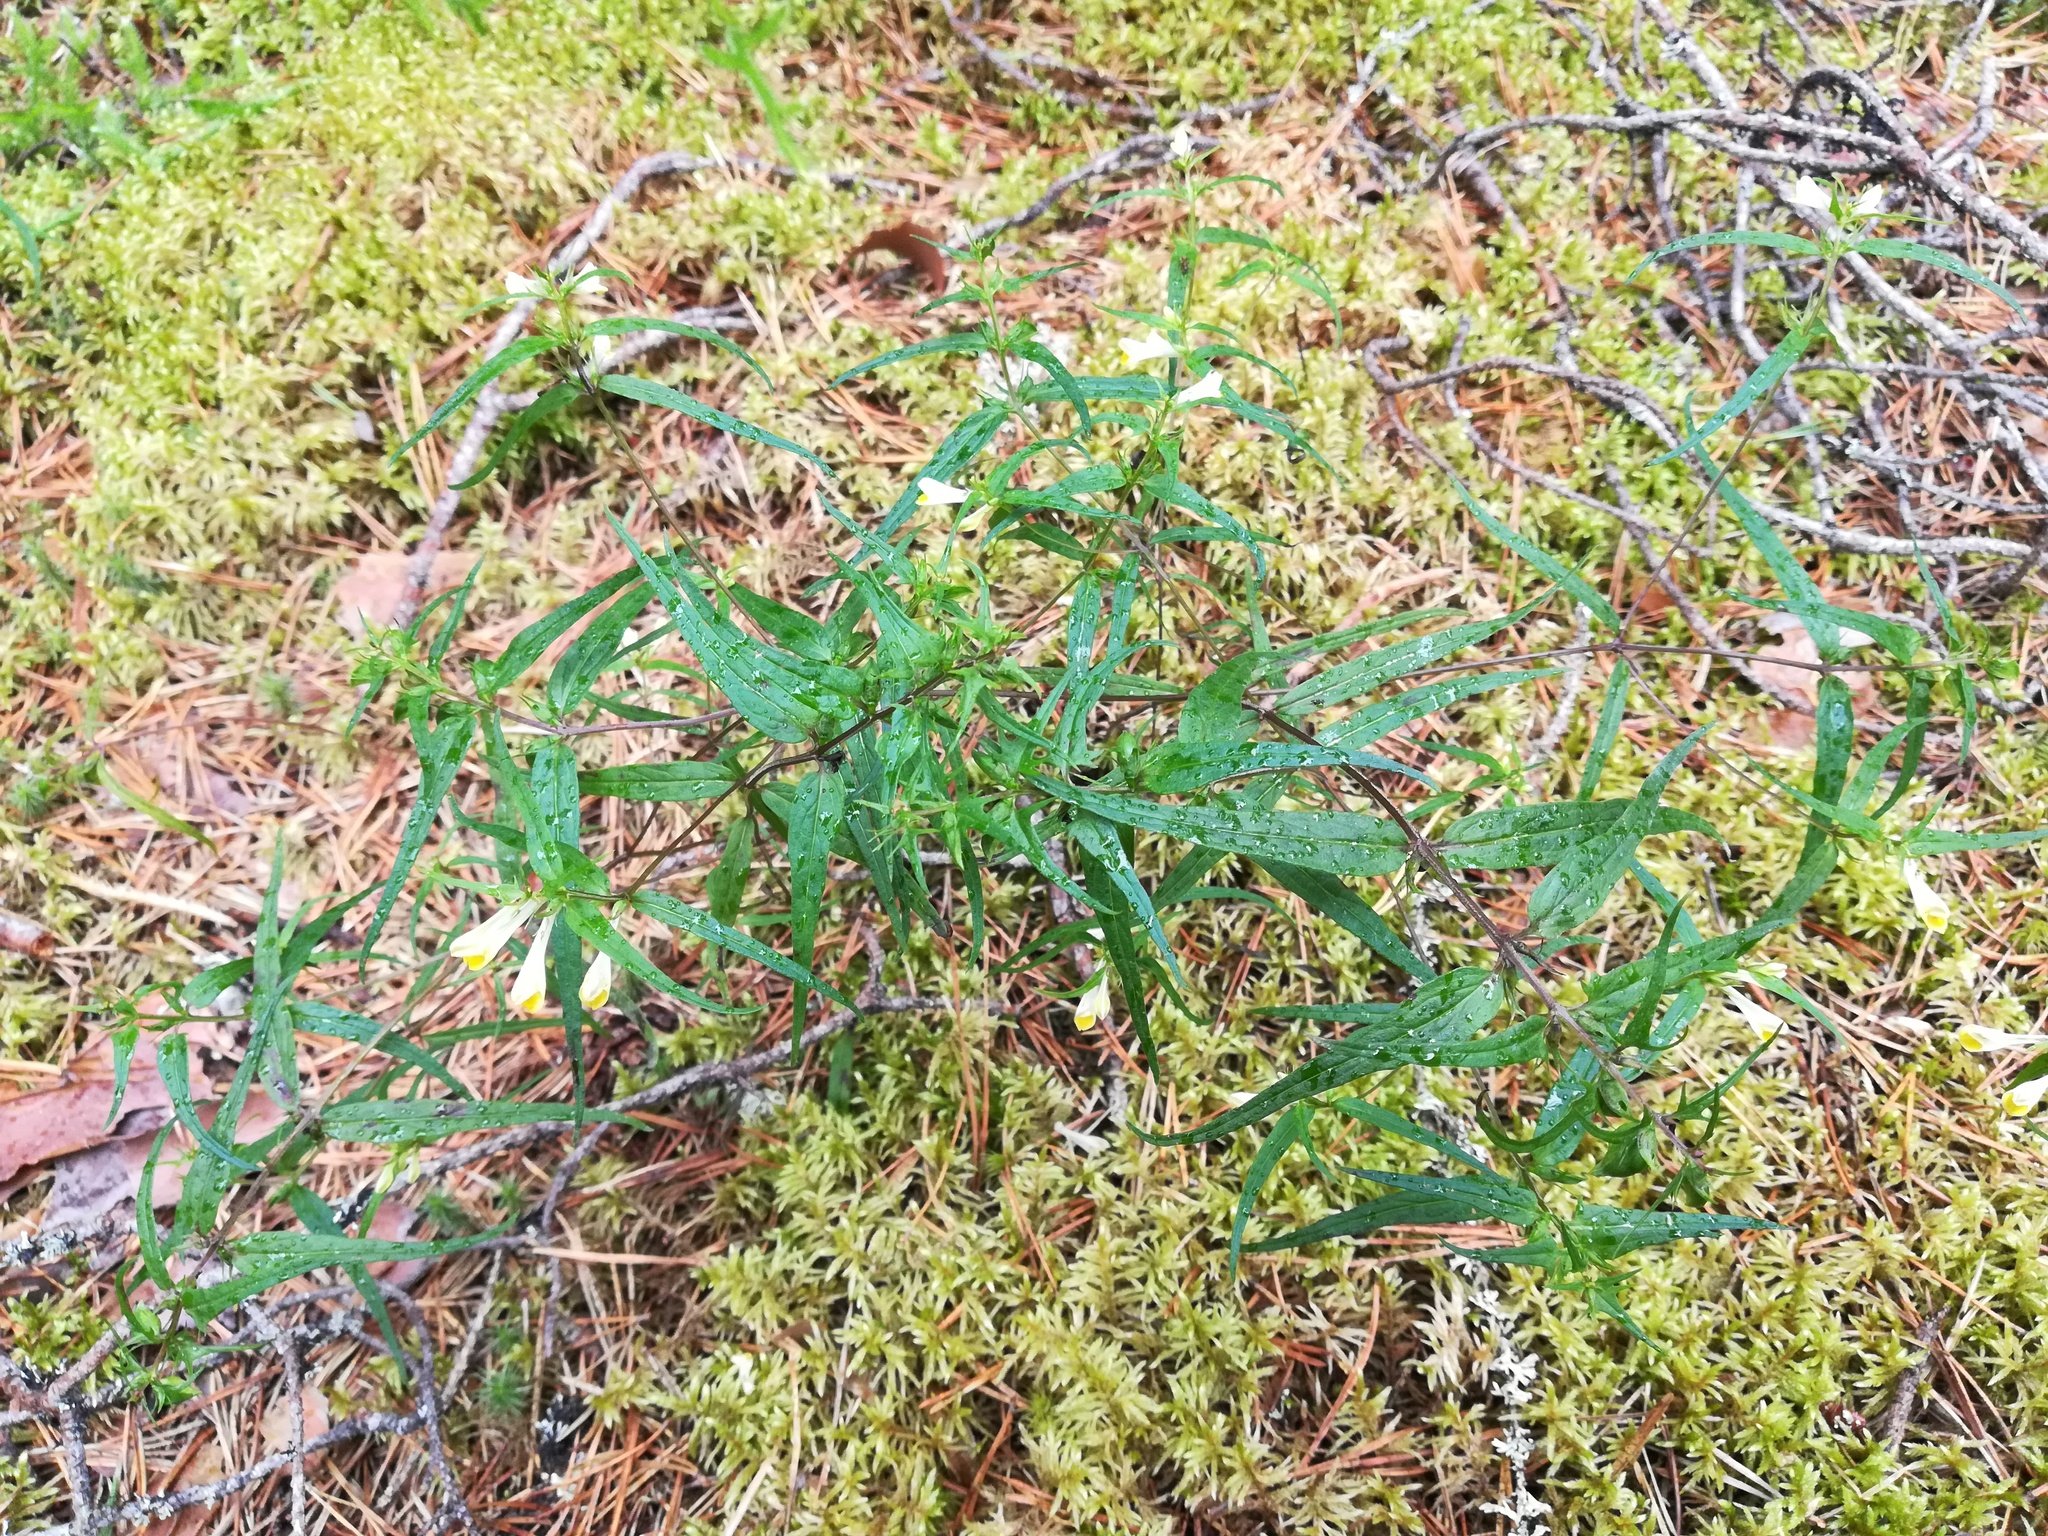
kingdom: Plantae
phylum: Tracheophyta
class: Magnoliopsida
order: Lamiales
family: Orobanchaceae
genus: Melampyrum
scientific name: Melampyrum pratense
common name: Common cow-wheat
